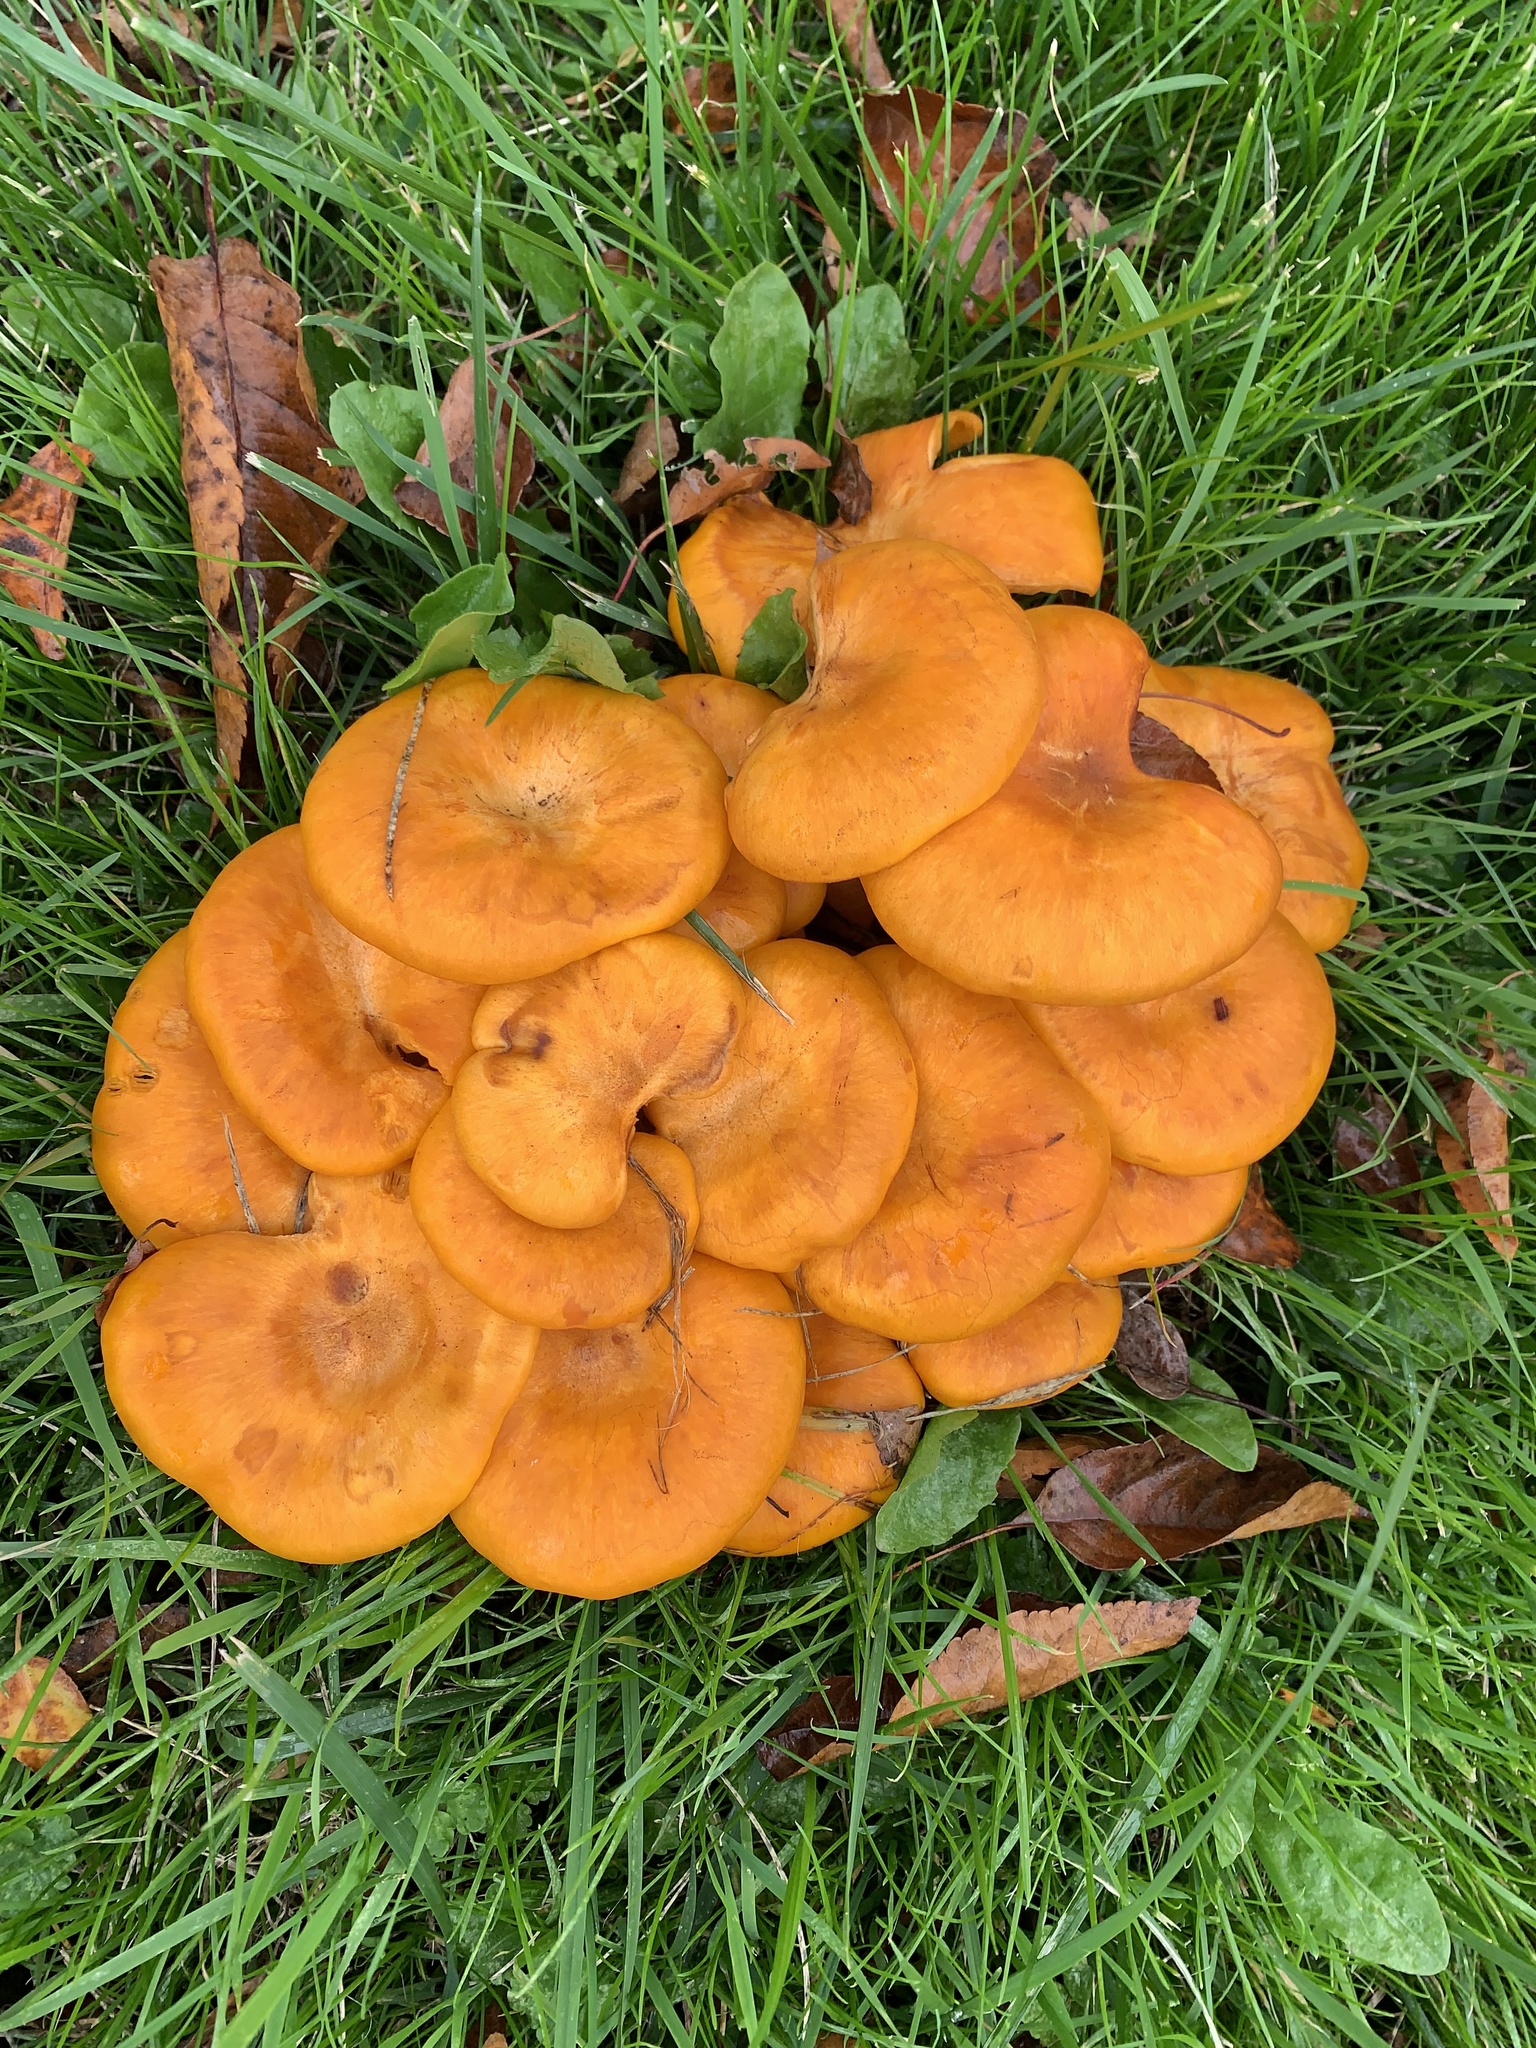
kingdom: Fungi
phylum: Basidiomycota
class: Agaricomycetes
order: Agaricales
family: Omphalotaceae
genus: Omphalotus
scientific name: Omphalotus illudens
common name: Jack o lantern
